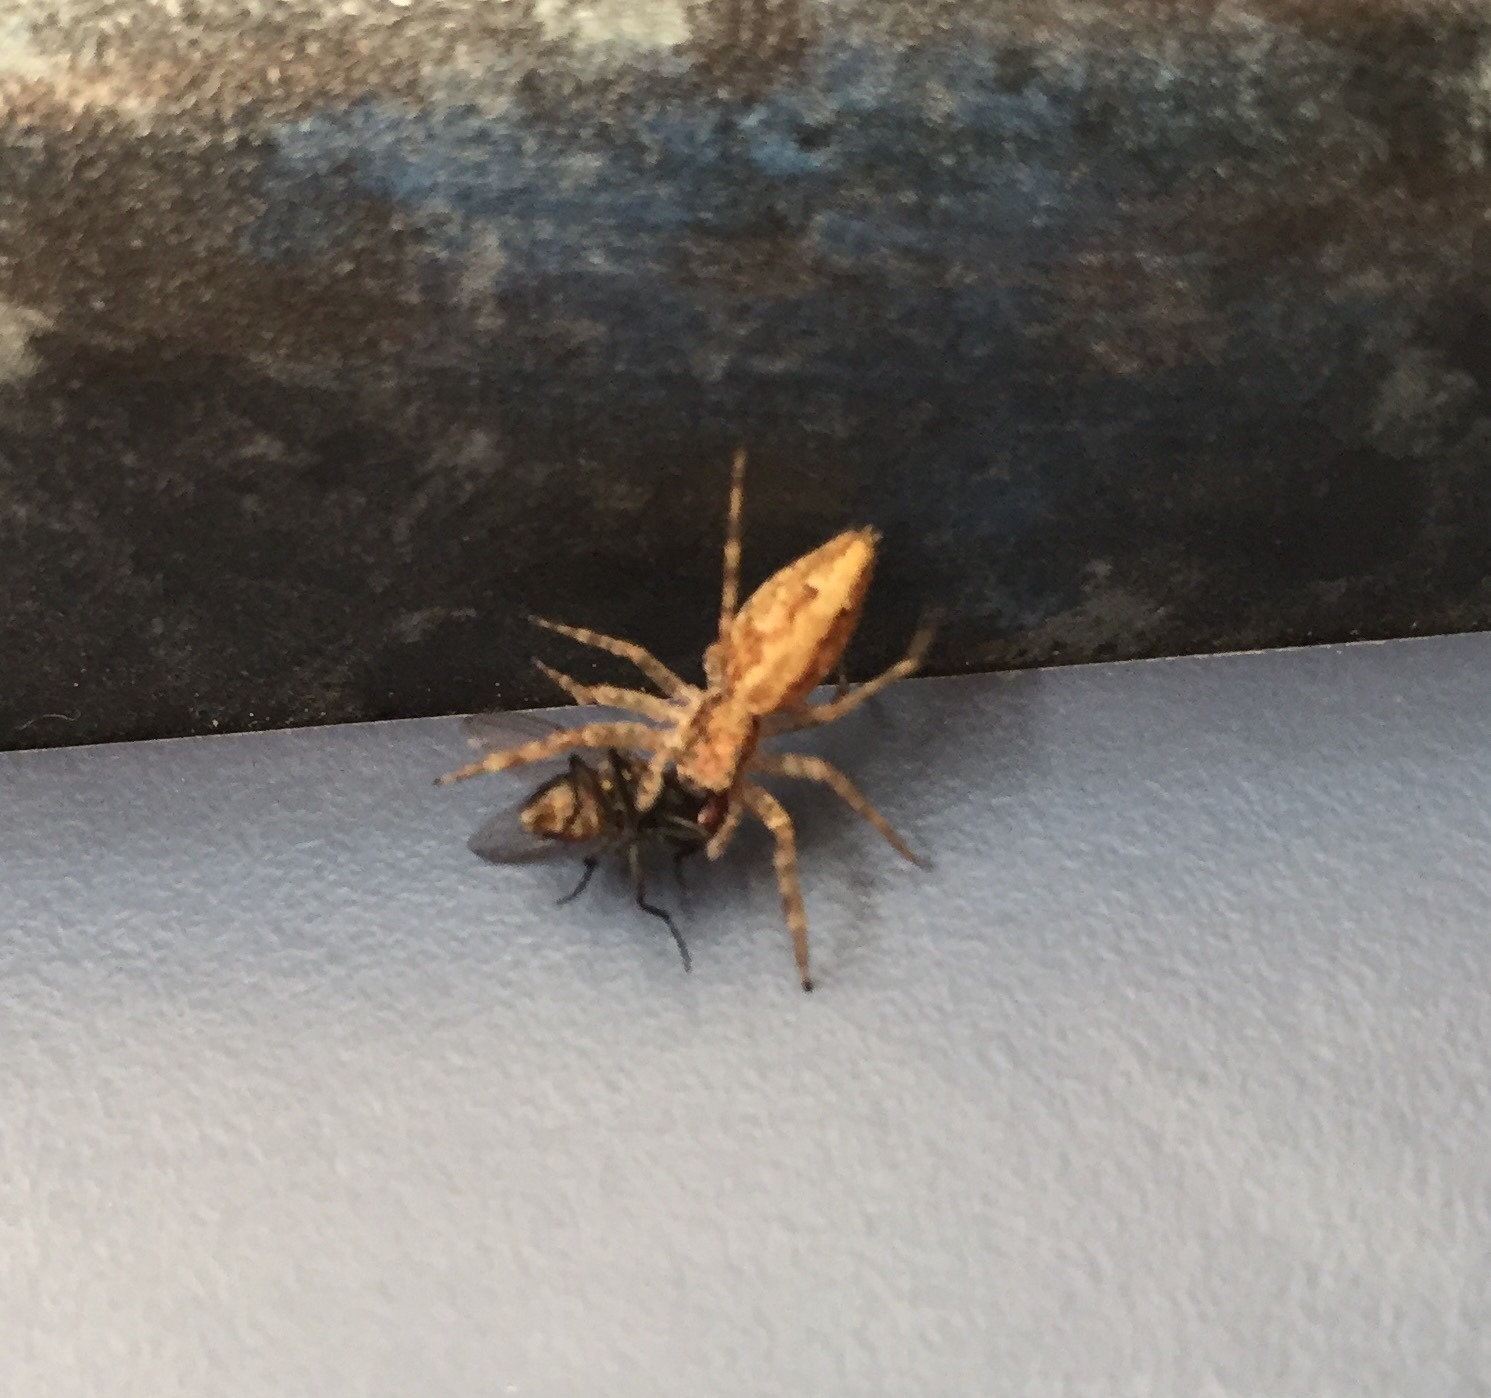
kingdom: Animalia
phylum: Arthropoda
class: Arachnida
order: Araneae
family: Salticidae
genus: Helpis
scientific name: Helpis minitabunda
